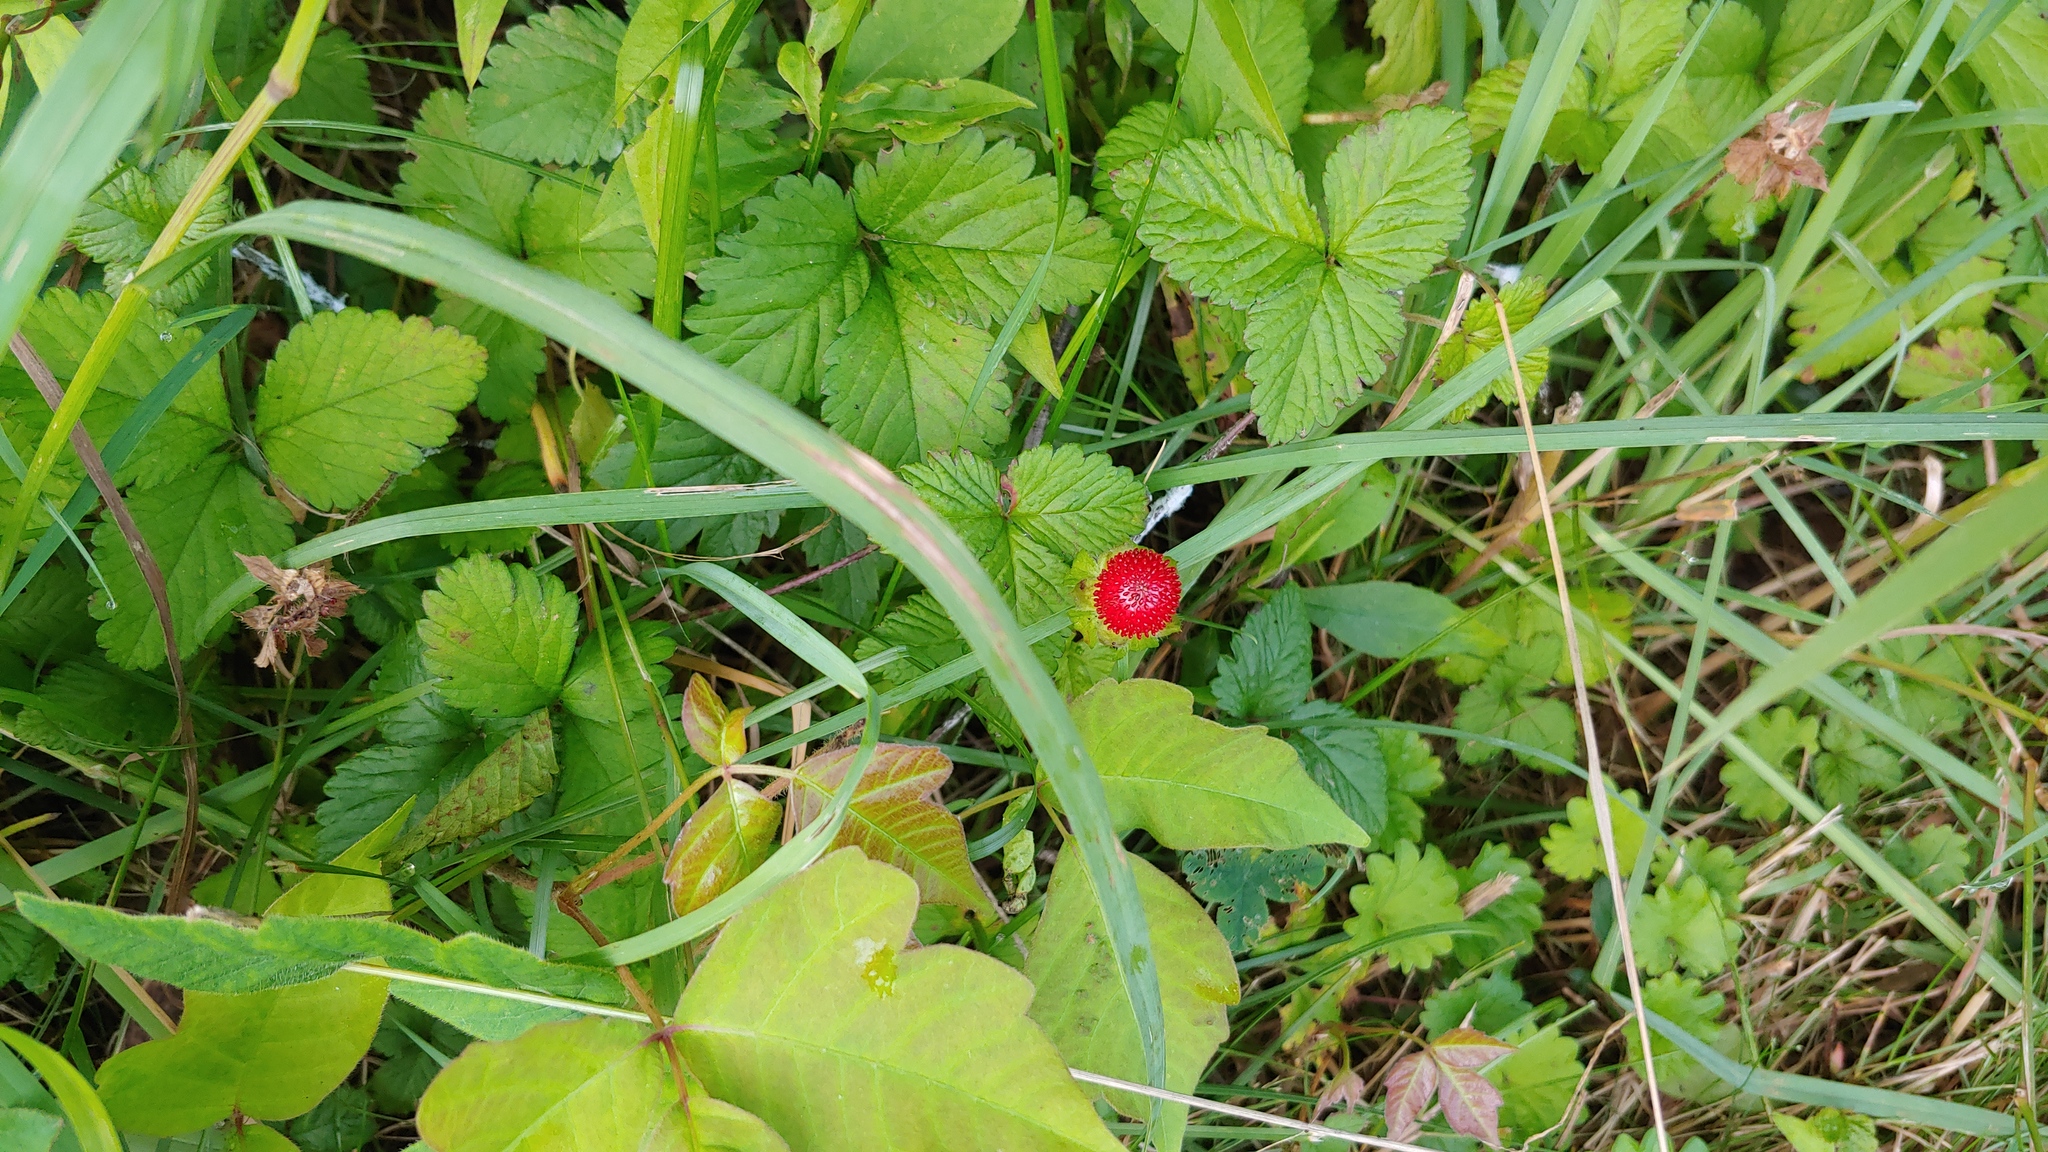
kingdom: Plantae
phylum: Tracheophyta
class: Magnoliopsida
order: Rosales
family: Rosaceae
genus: Potentilla
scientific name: Potentilla indica
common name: Yellow-flowered strawberry
